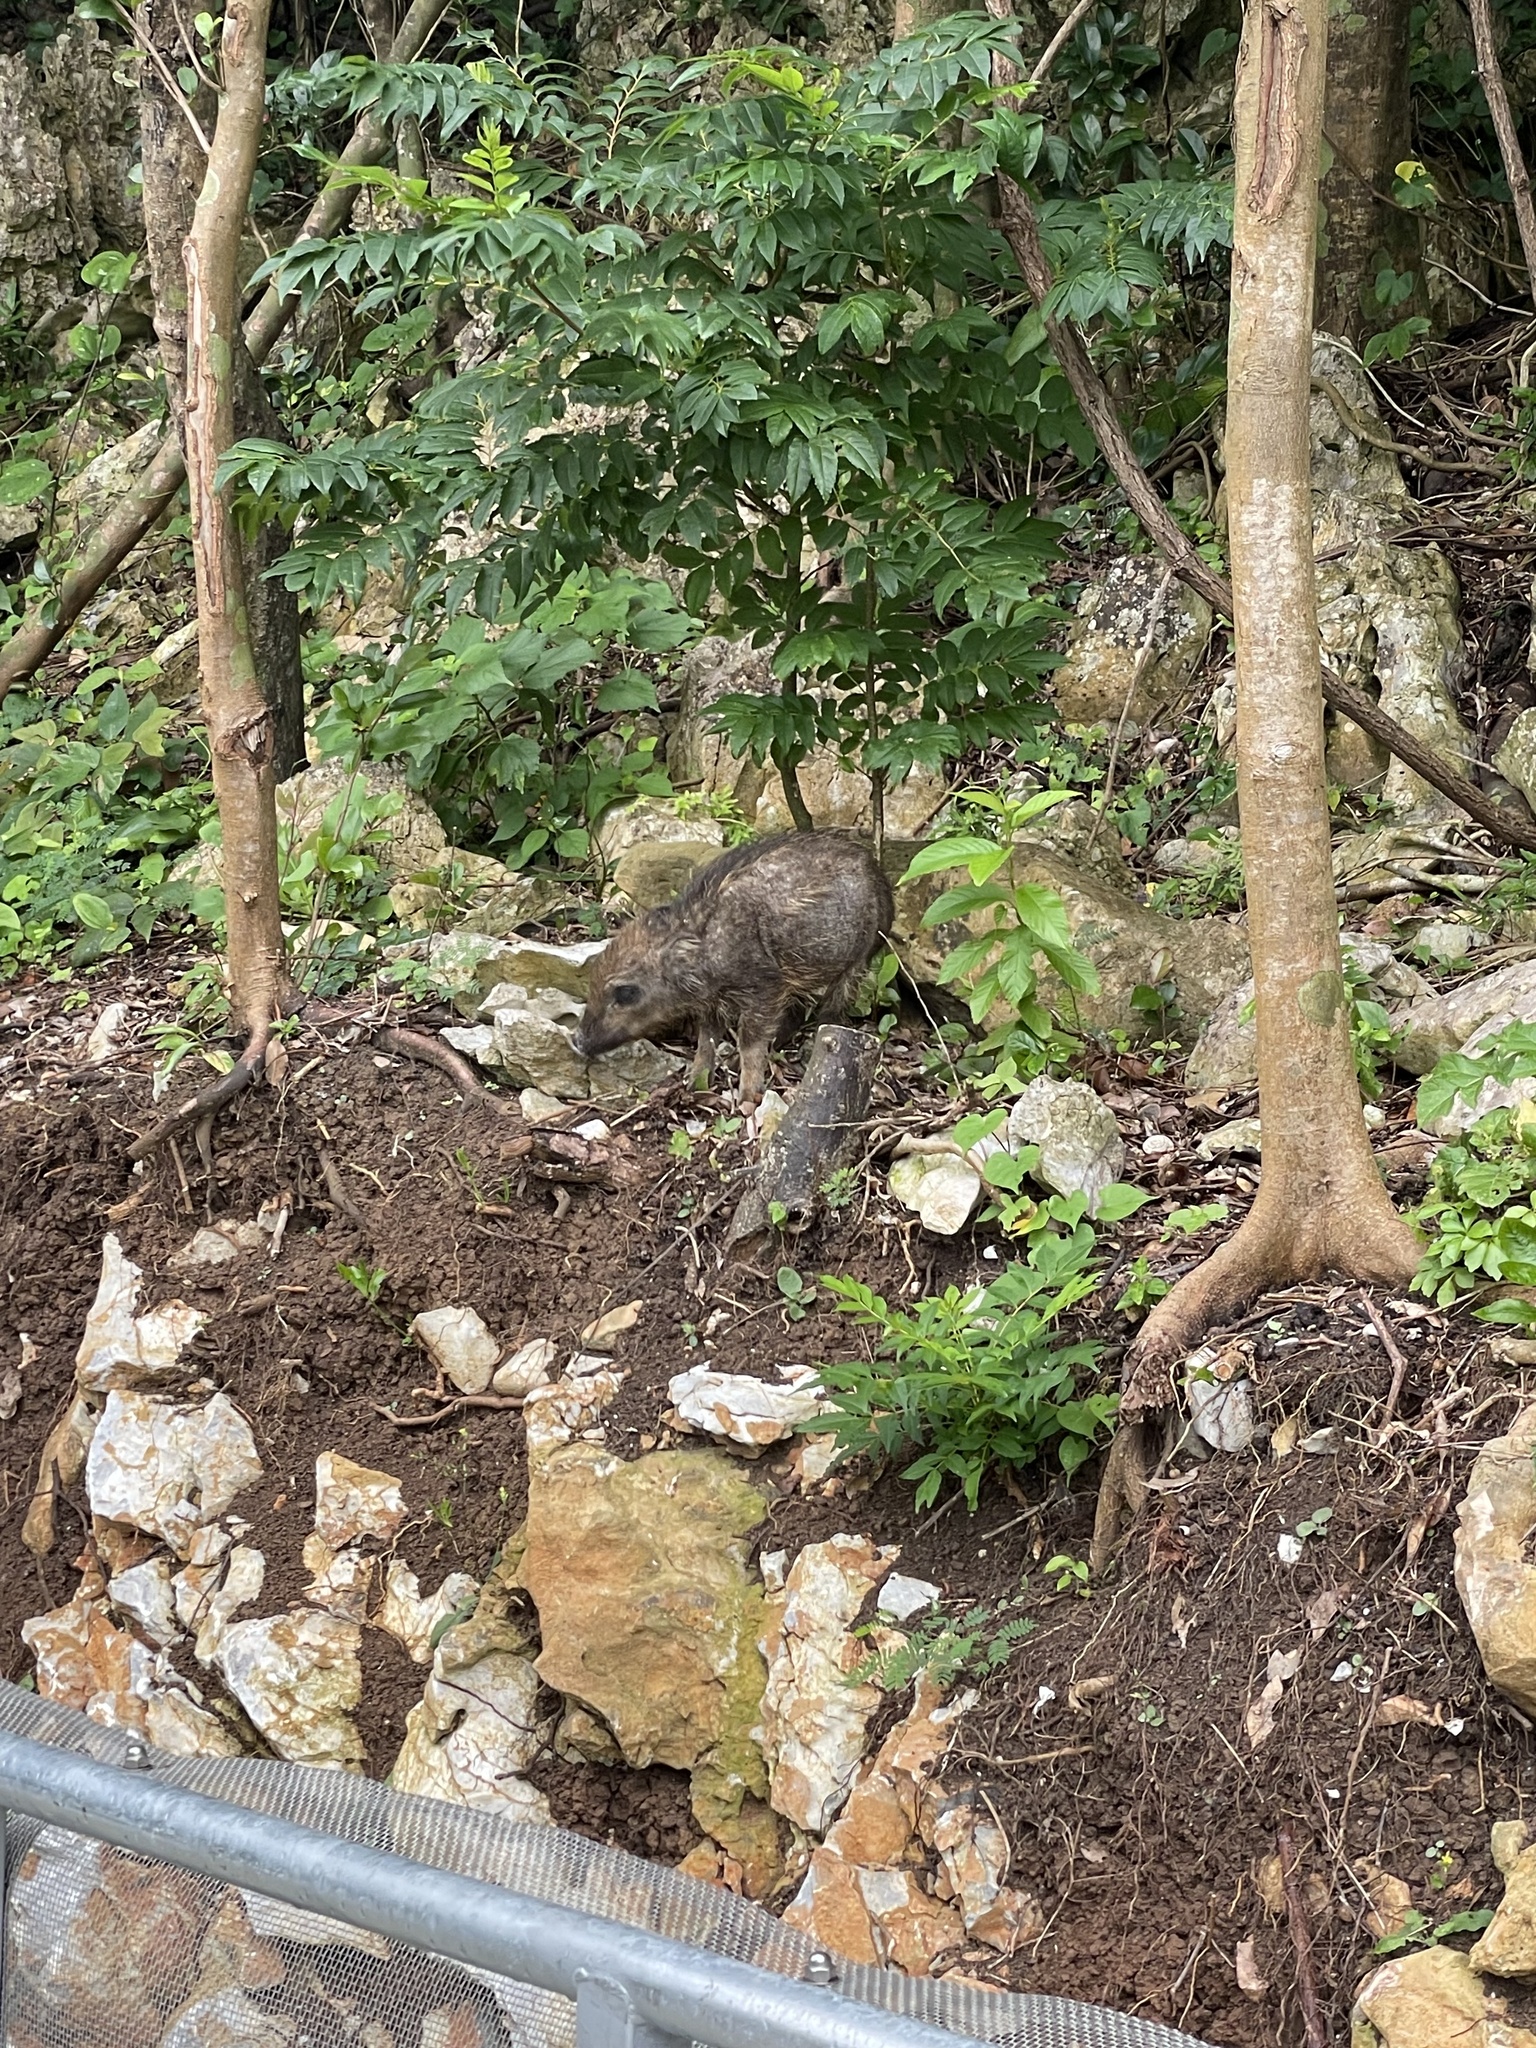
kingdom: Animalia
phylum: Chordata
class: Mammalia
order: Artiodactyla
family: Suidae
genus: Sus
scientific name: Sus scrofa
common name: Wild boar
